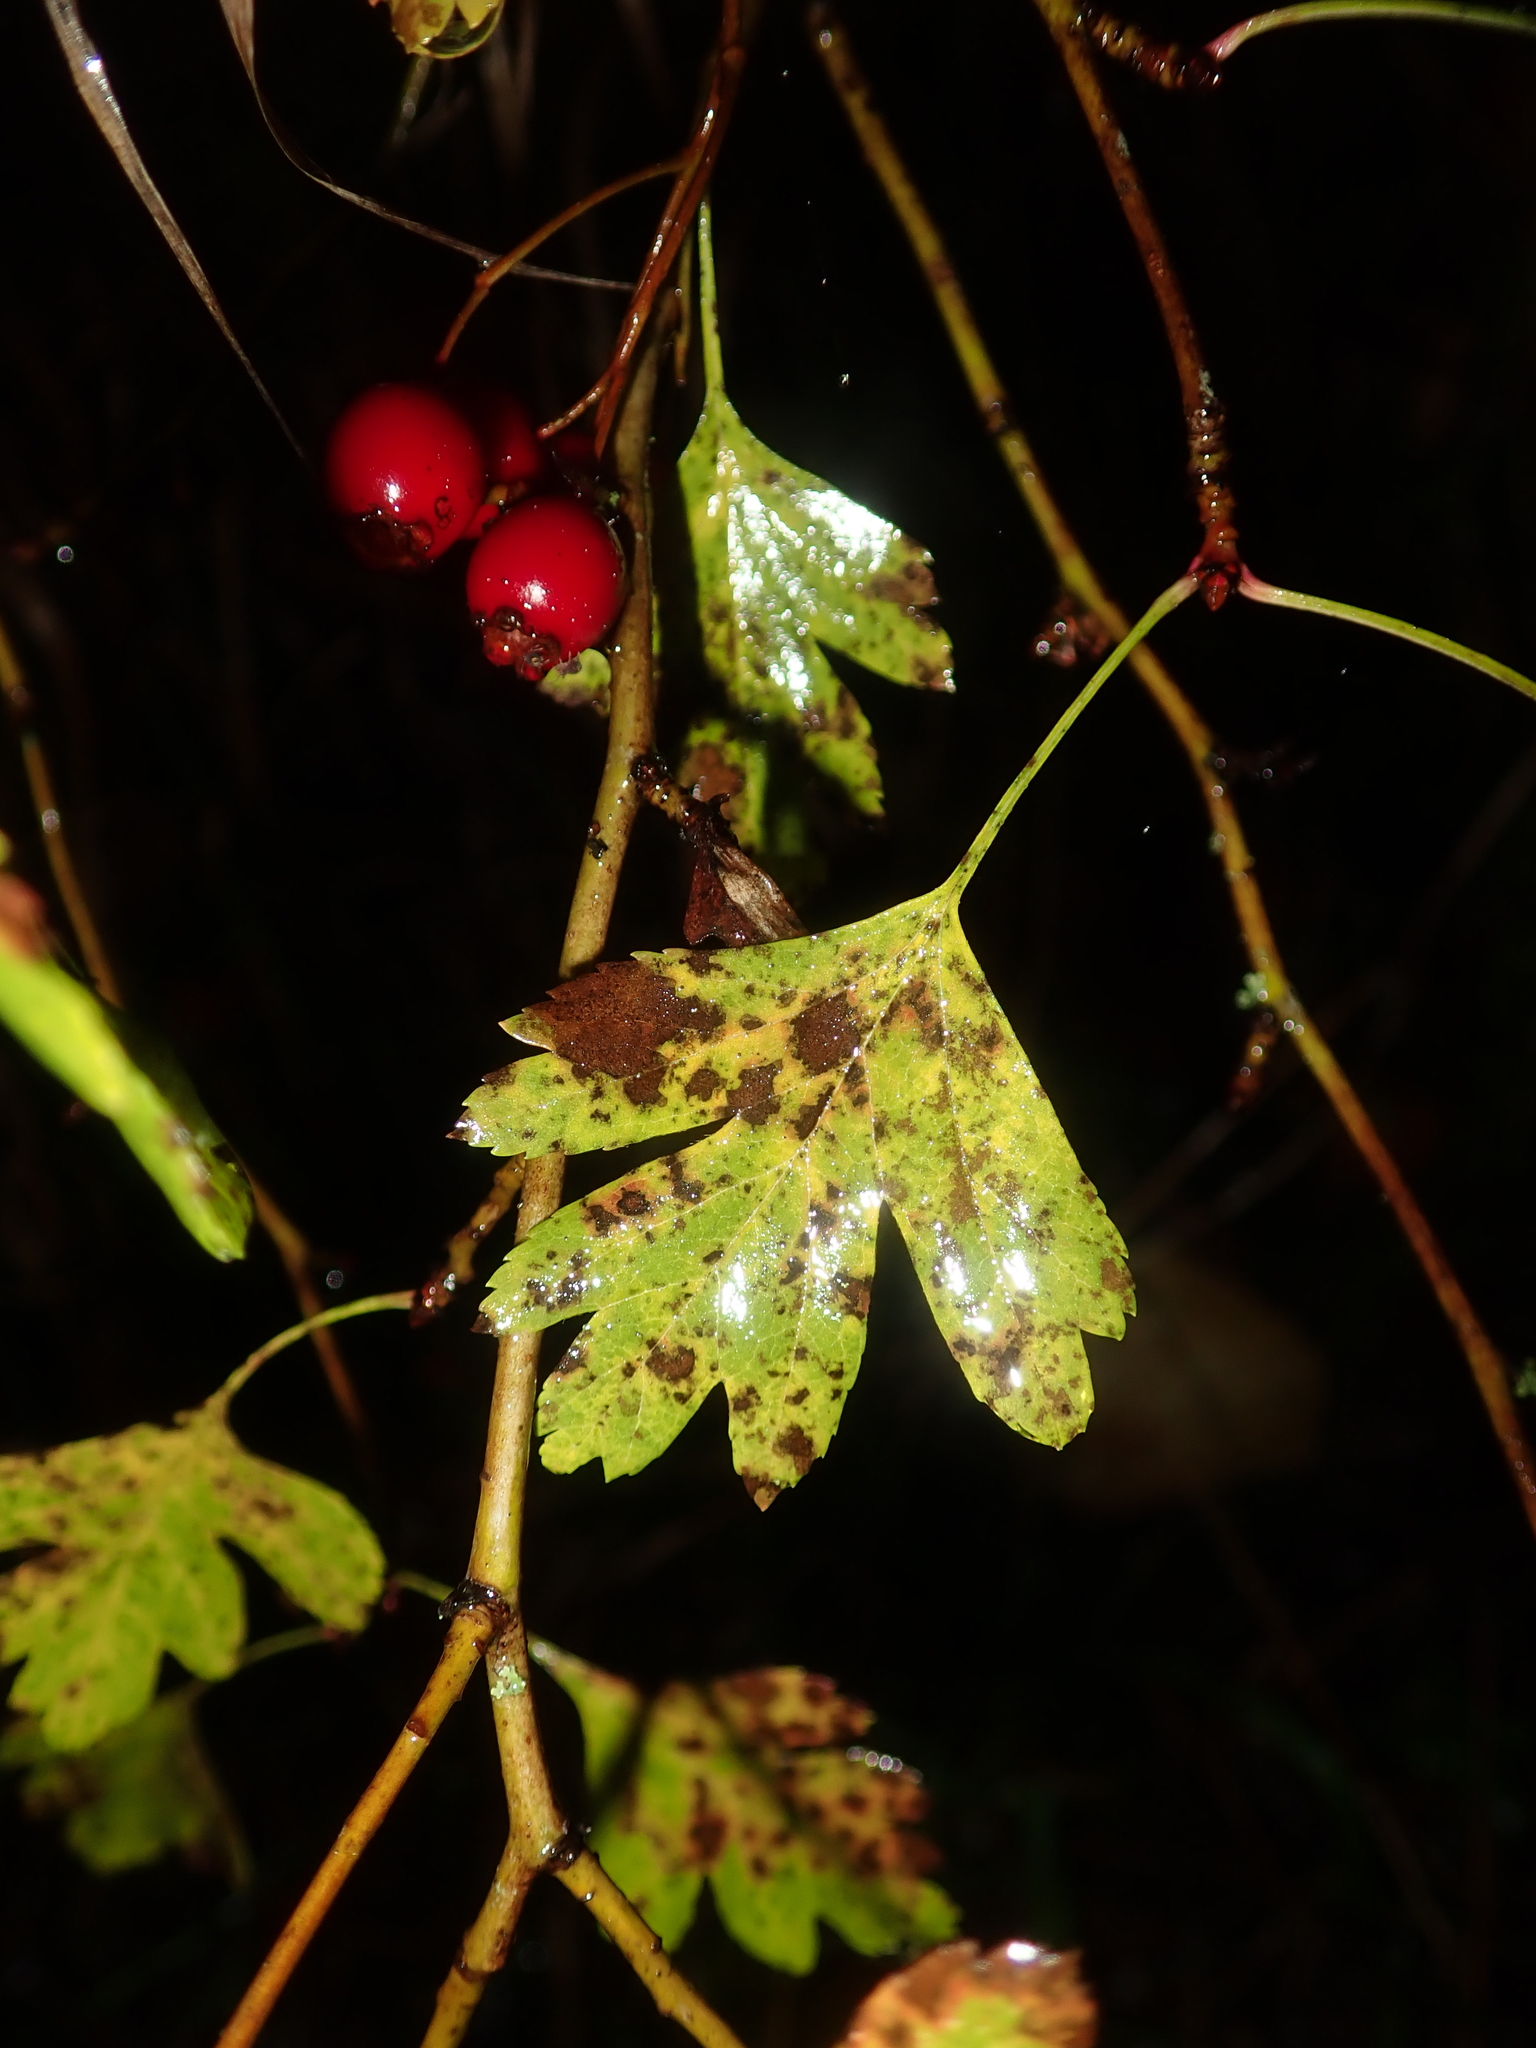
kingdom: Plantae
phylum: Tracheophyta
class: Magnoliopsida
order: Rosales
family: Rosaceae
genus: Crataegus
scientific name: Crataegus monogyna
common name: Hawthorn
